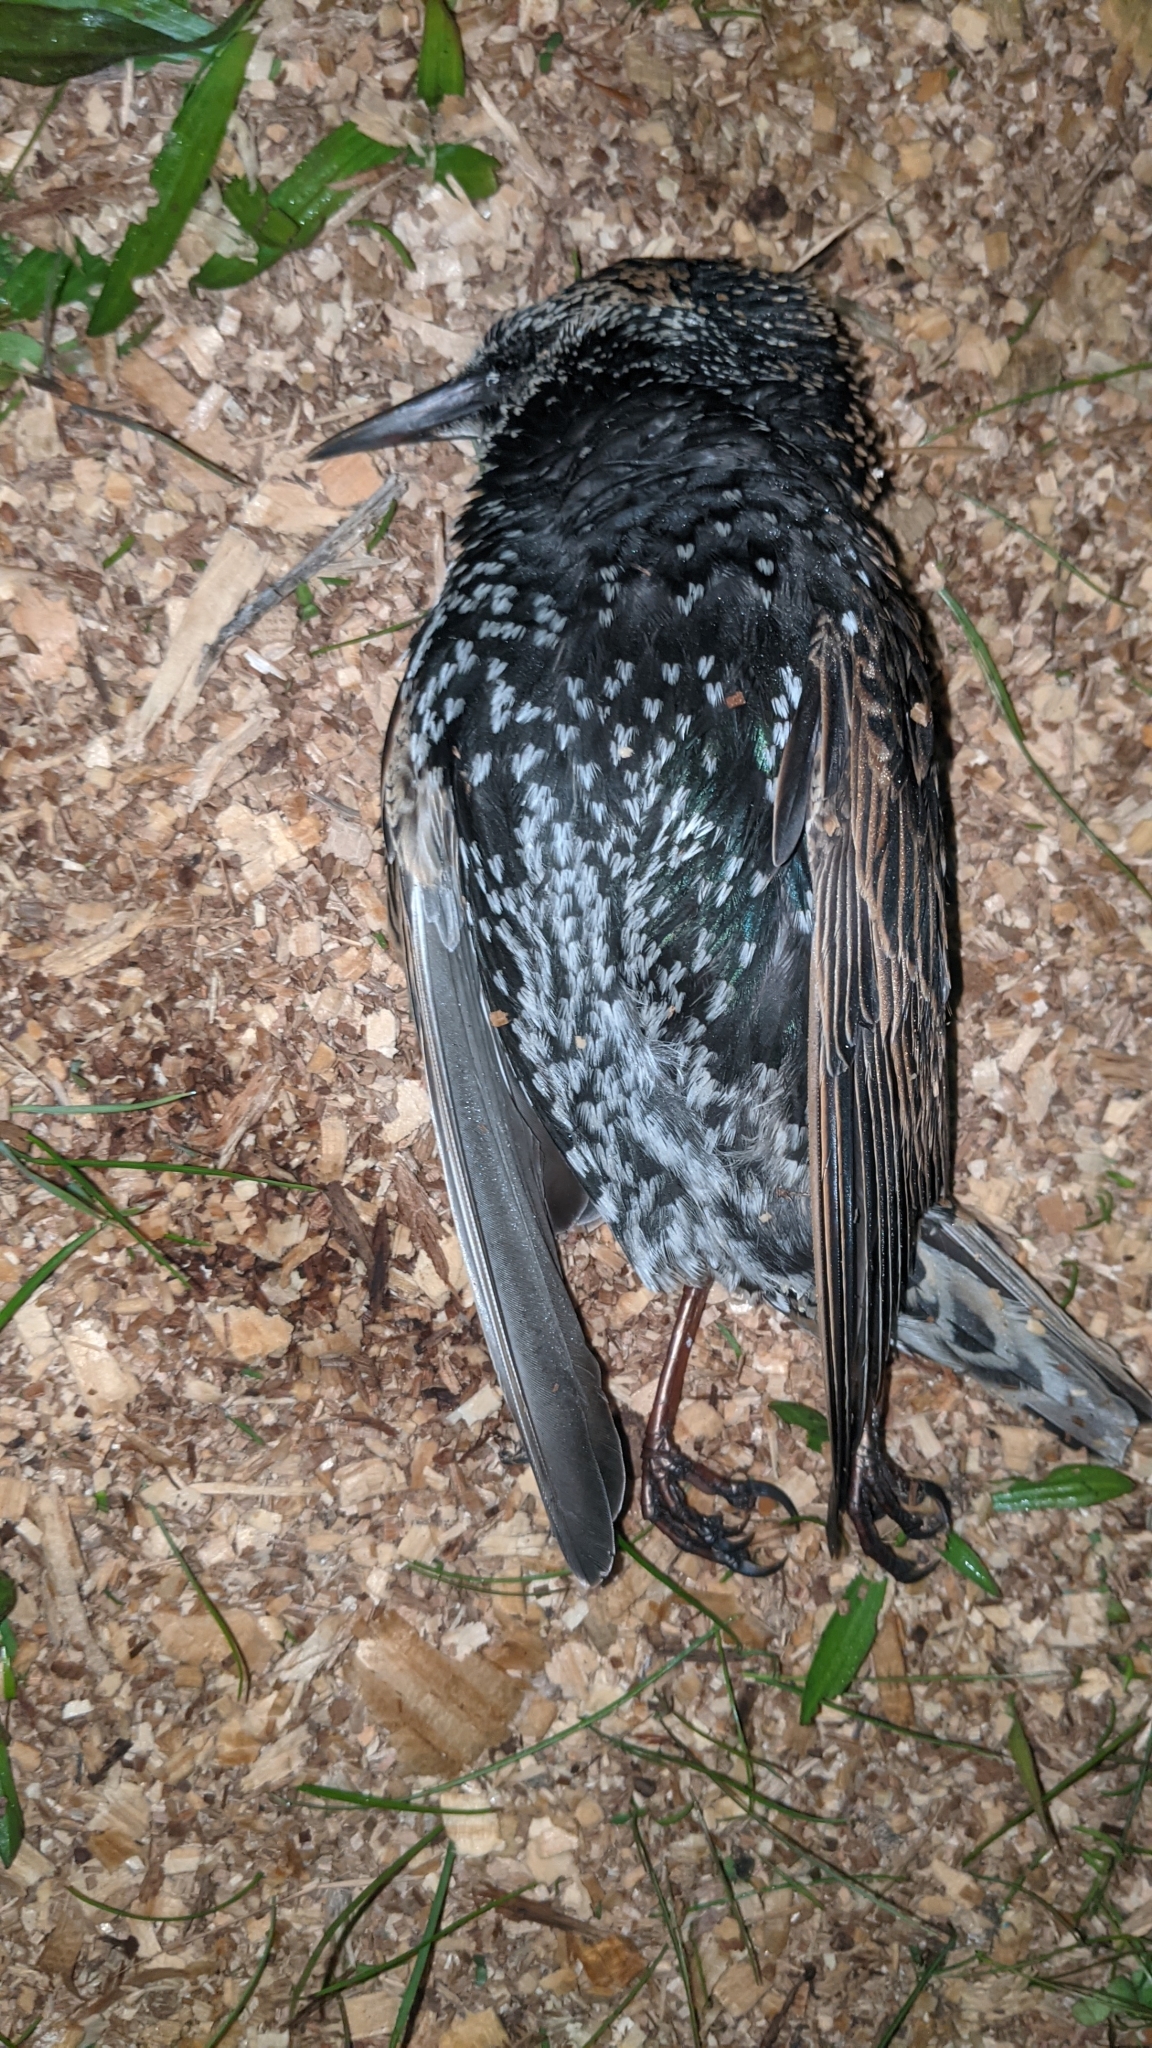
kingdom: Animalia
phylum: Chordata
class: Aves
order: Passeriformes
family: Sturnidae
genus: Sturnus
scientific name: Sturnus vulgaris
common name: Common starling
